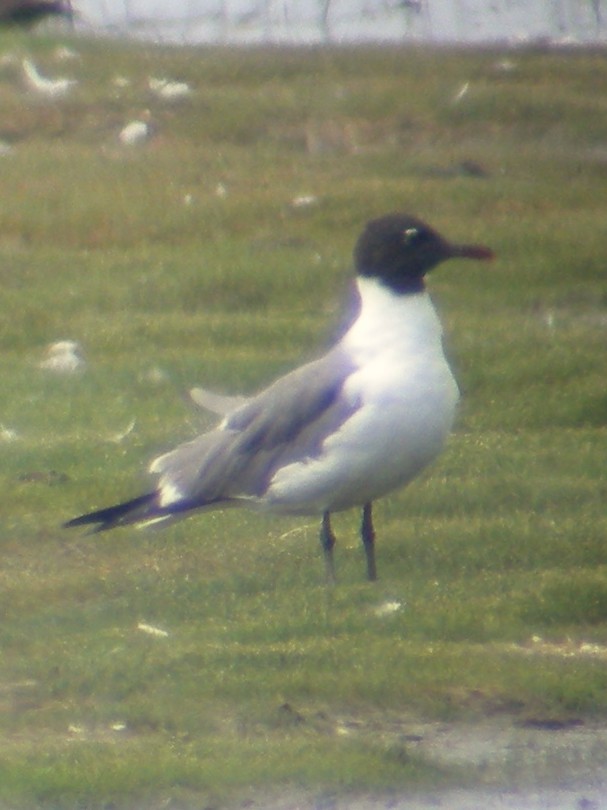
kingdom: Animalia
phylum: Chordata
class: Aves
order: Charadriiformes
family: Laridae
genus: Leucophaeus
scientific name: Leucophaeus atricilla
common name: Laughing gull
